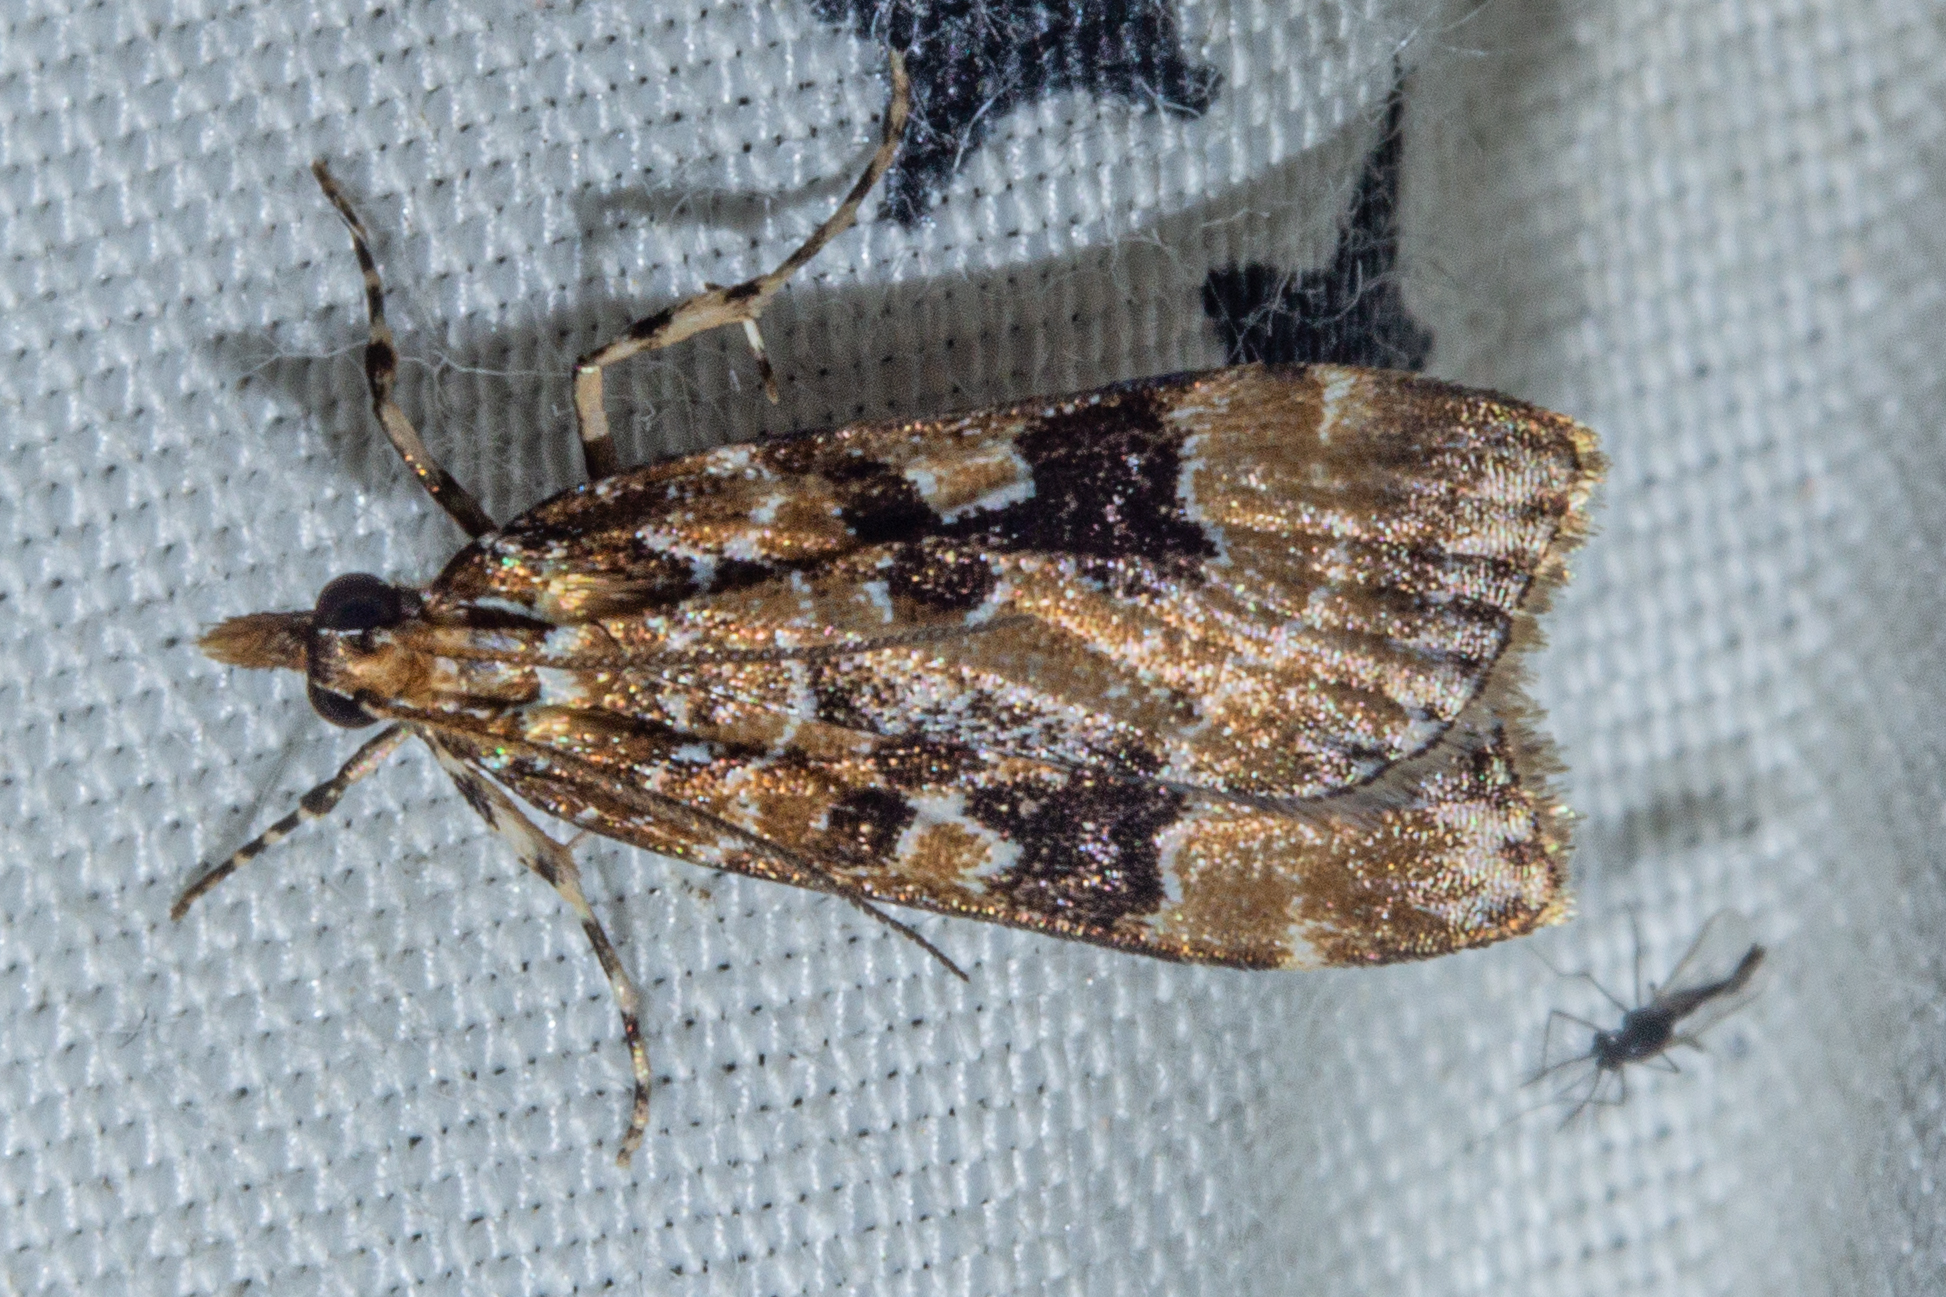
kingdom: Animalia
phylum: Arthropoda
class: Insecta
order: Lepidoptera
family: Crambidae
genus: Scoparia
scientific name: Scoparia ustimacula
